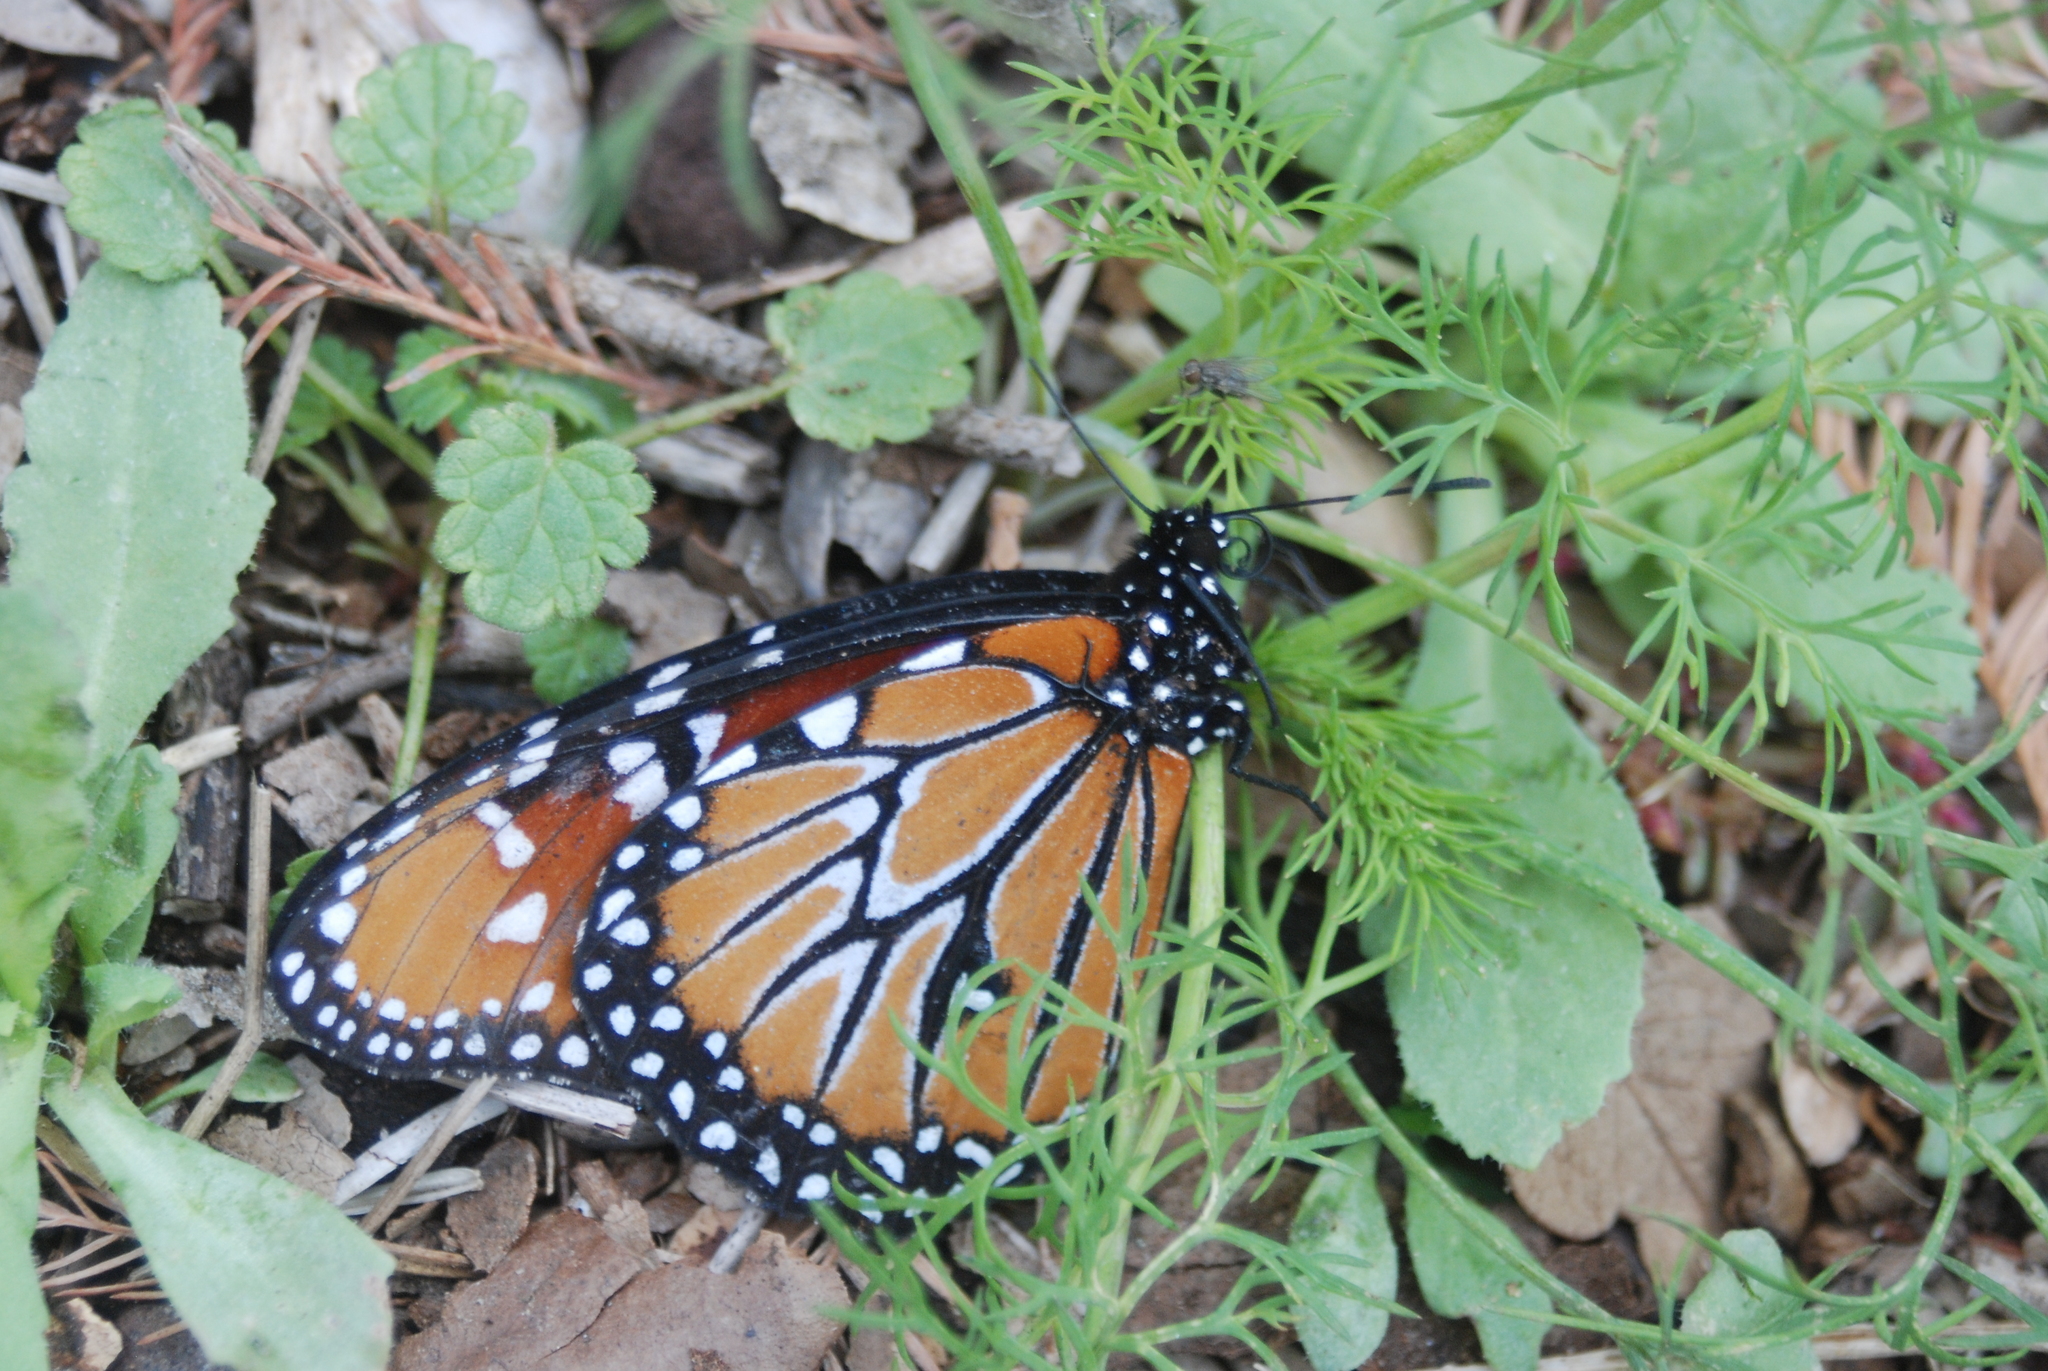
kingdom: Animalia
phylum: Arthropoda
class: Insecta
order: Lepidoptera
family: Nymphalidae
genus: Danaus
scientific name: Danaus gilippus
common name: Queen
